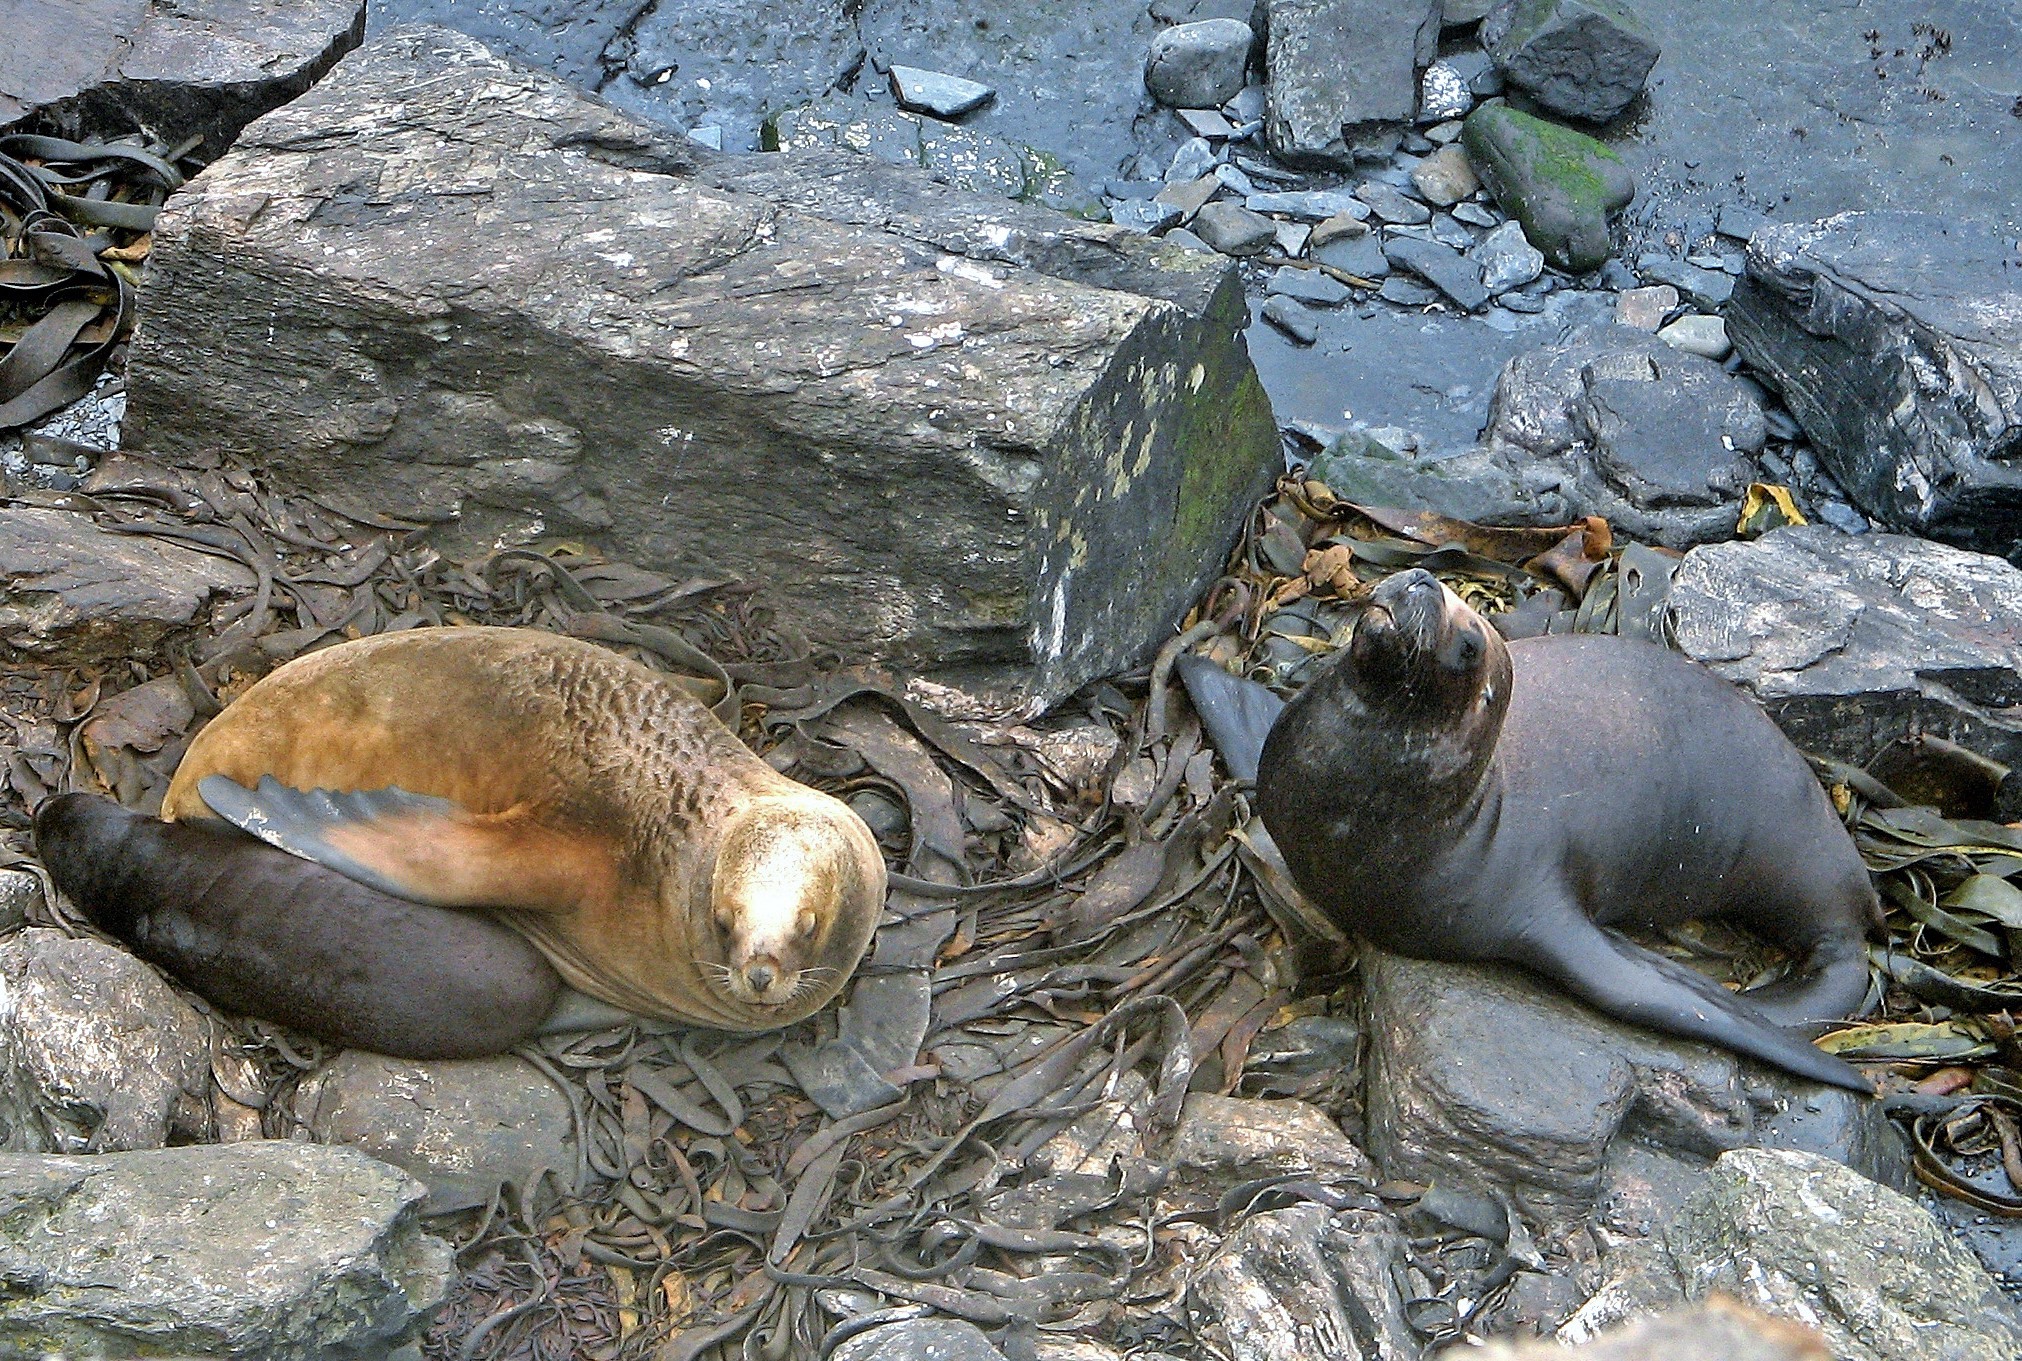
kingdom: Animalia
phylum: Chordata
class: Mammalia
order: Carnivora
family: Otariidae
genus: Otaria
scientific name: Otaria byronia
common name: South american sea lion
